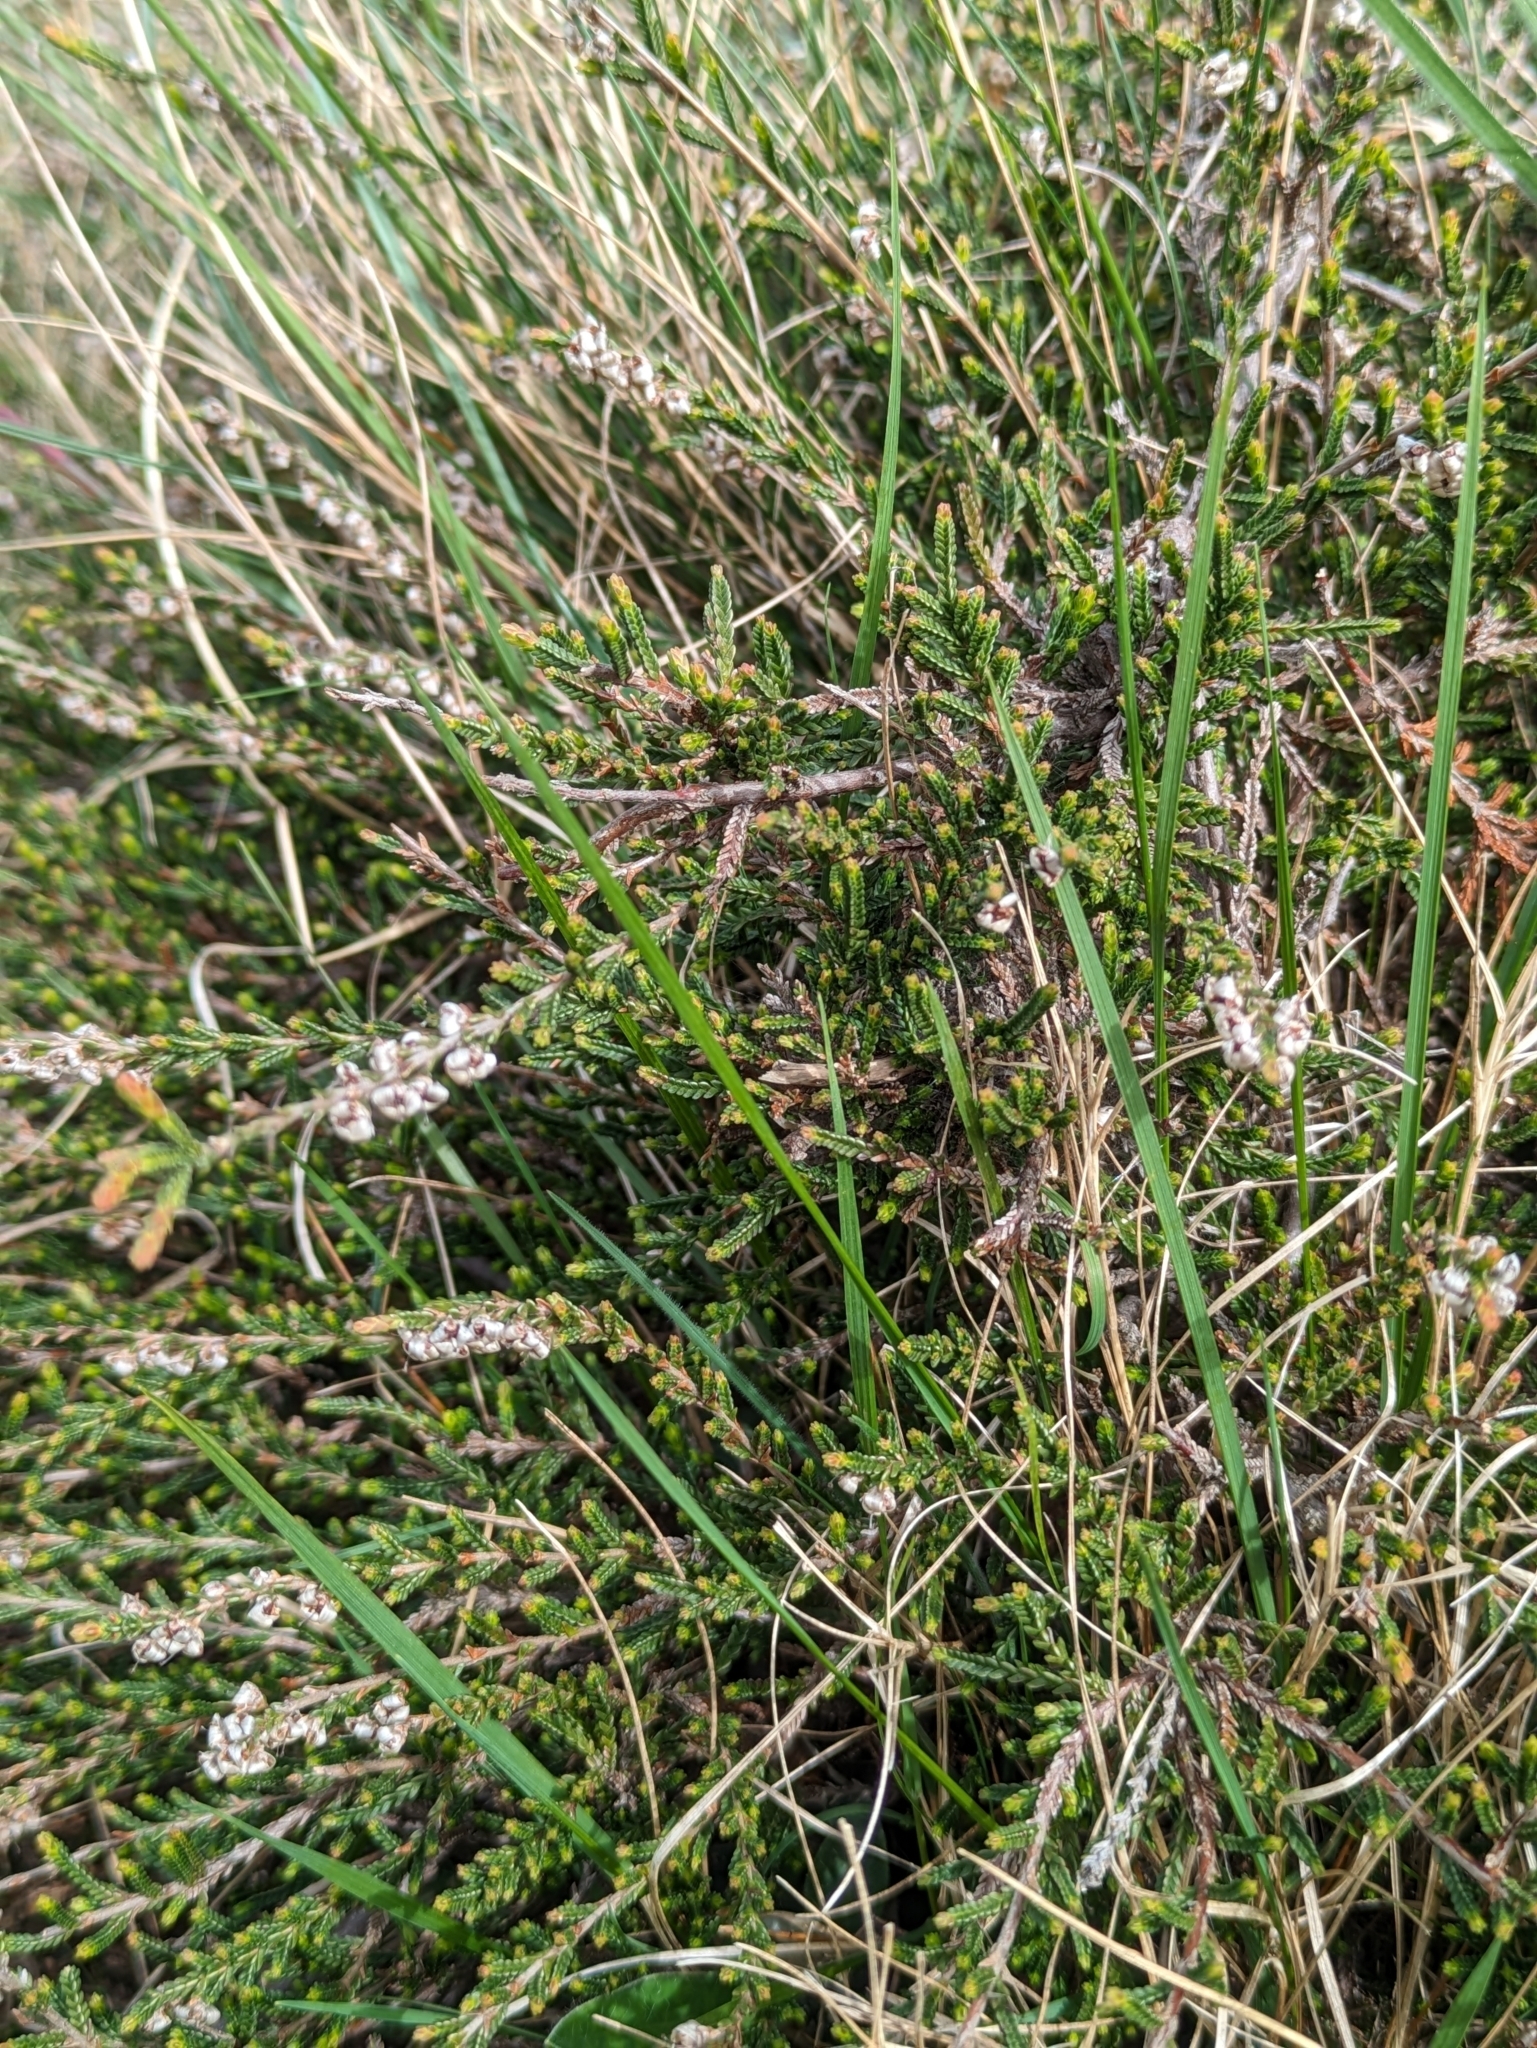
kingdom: Plantae
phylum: Tracheophyta
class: Magnoliopsida
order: Ericales
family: Ericaceae
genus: Calluna
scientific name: Calluna vulgaris
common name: Heather
